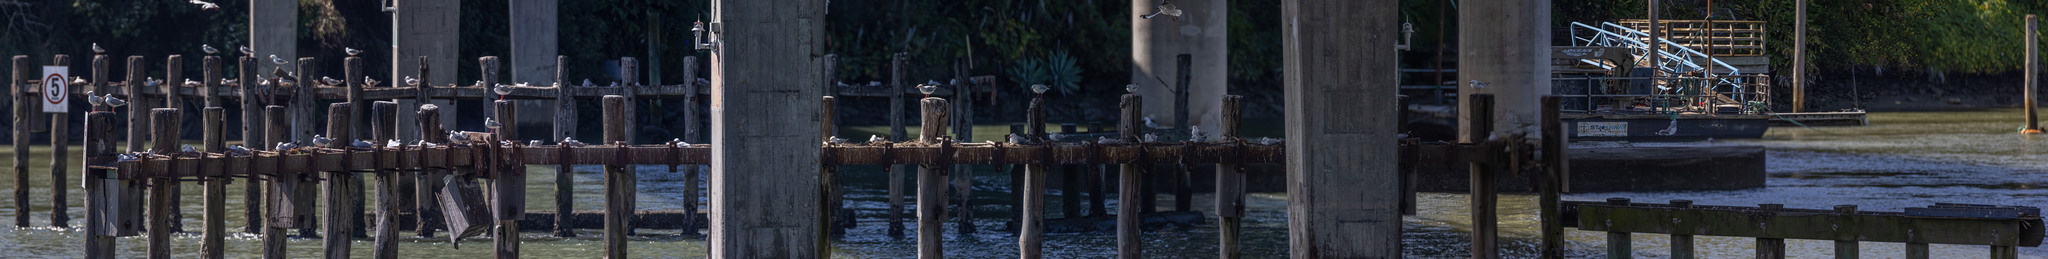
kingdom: Animalia
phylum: Chordata
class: Aves
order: Charadriiformes
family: Laridae
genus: Chroicocephalus
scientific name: Chroicocephalus novaehollandiae
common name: Silver gull
